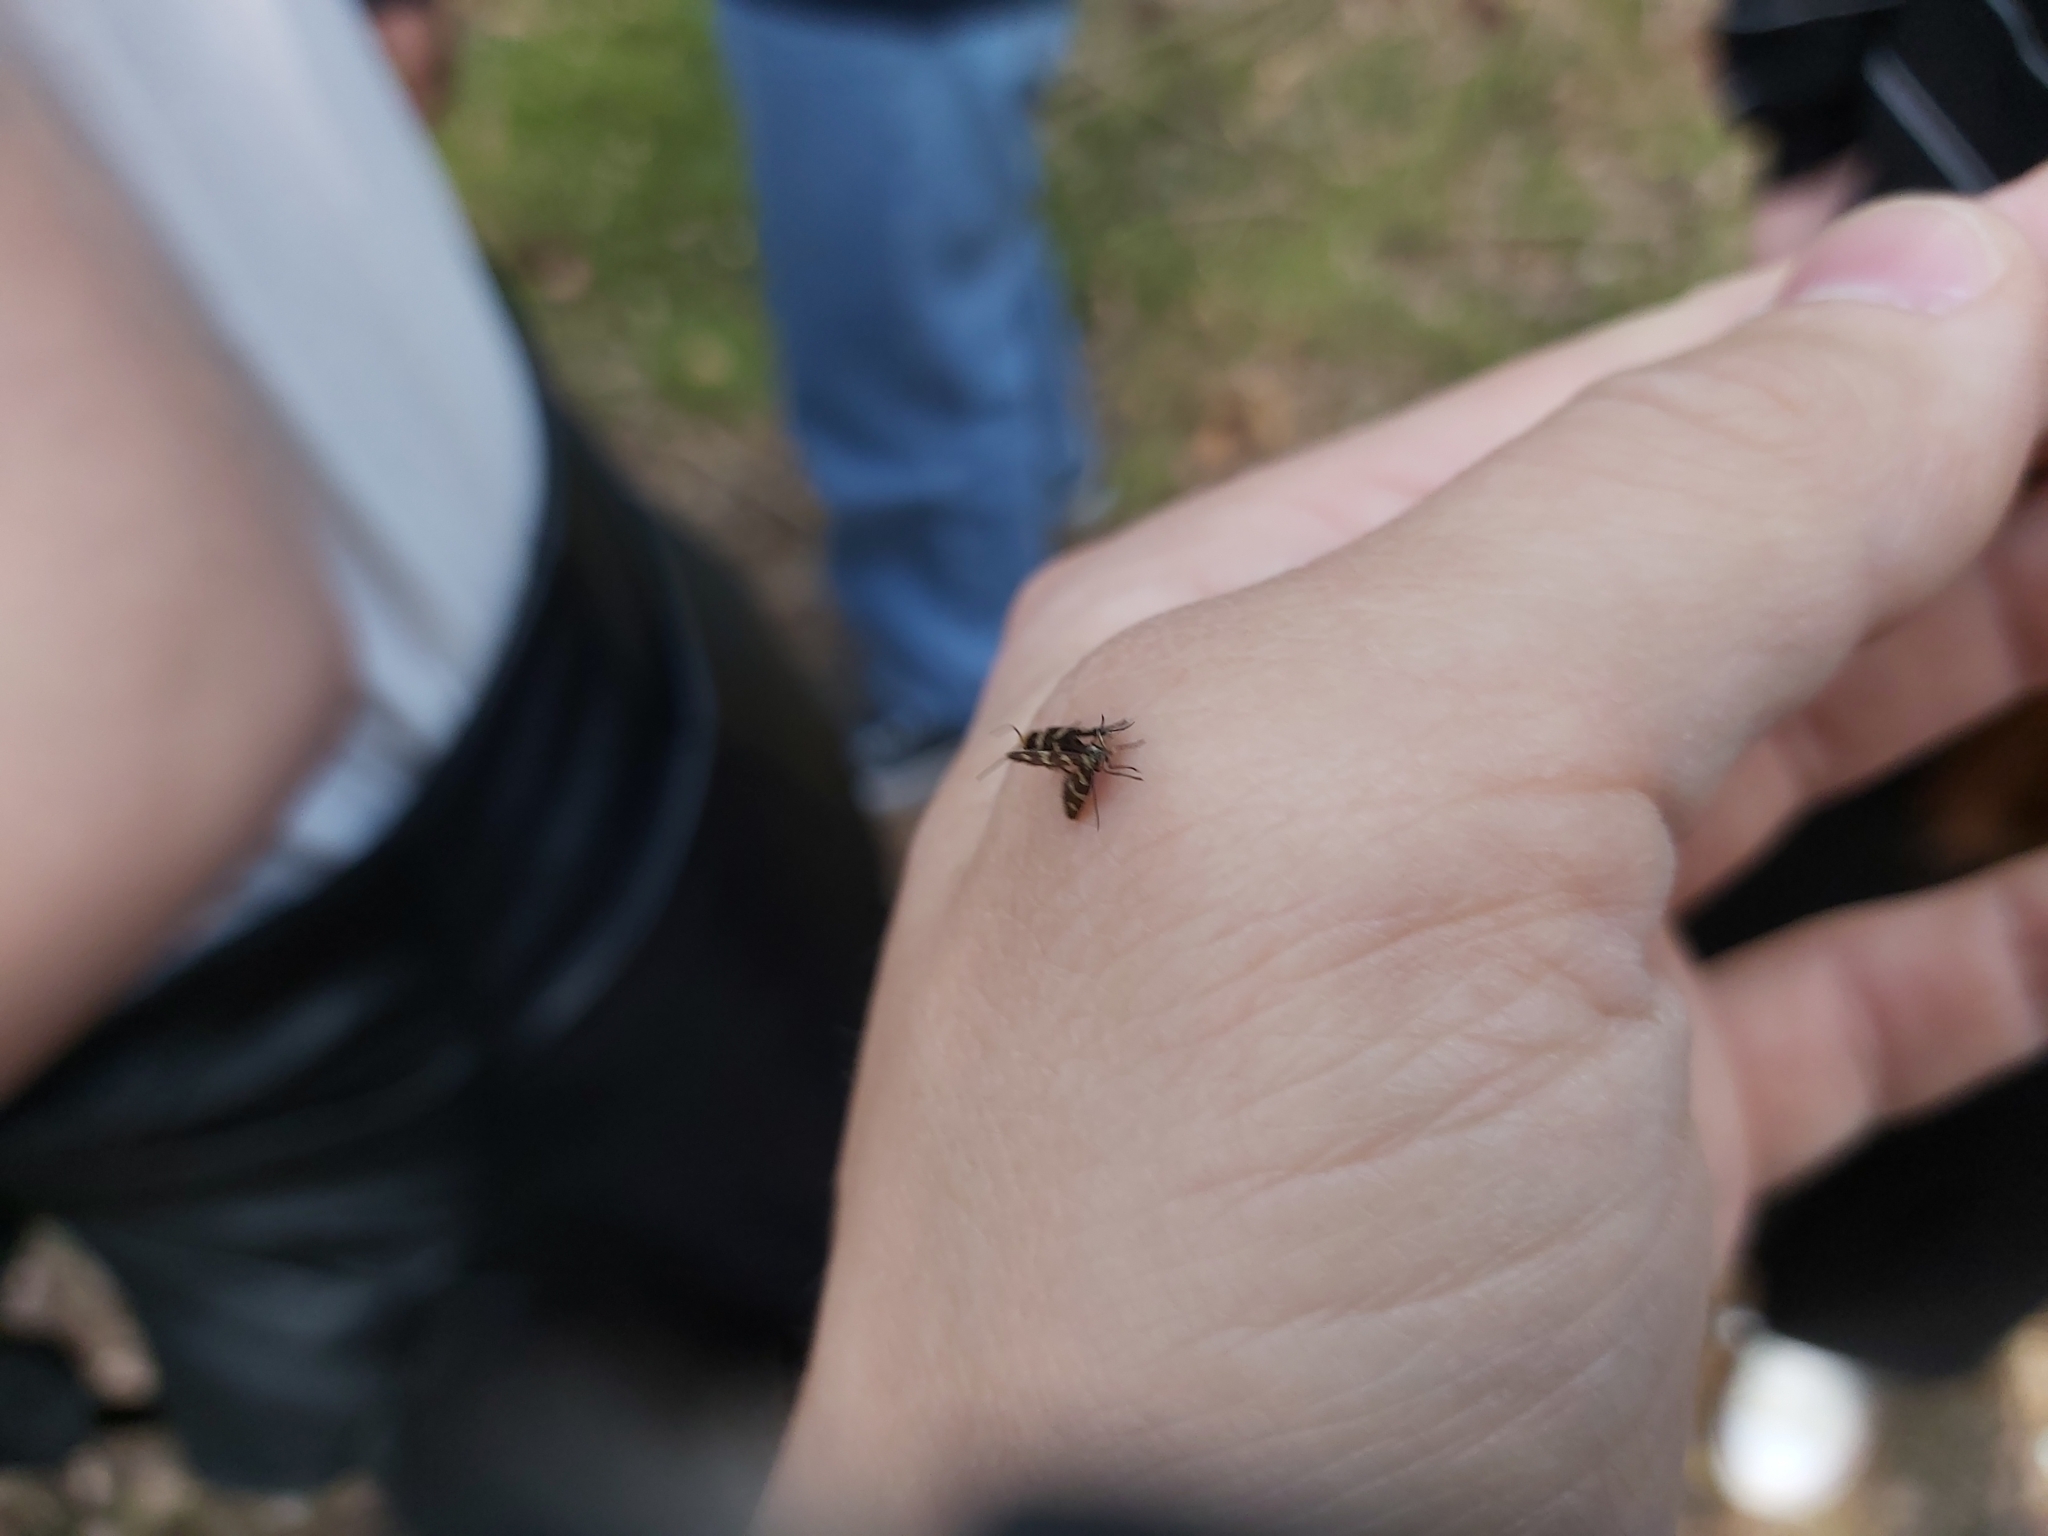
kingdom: Animalia
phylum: Arthropoda
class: Insecta
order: Lepidoptera
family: Micropterigidae
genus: Micropterix
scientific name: Micropterix aureatella
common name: Yellow-barred gold
